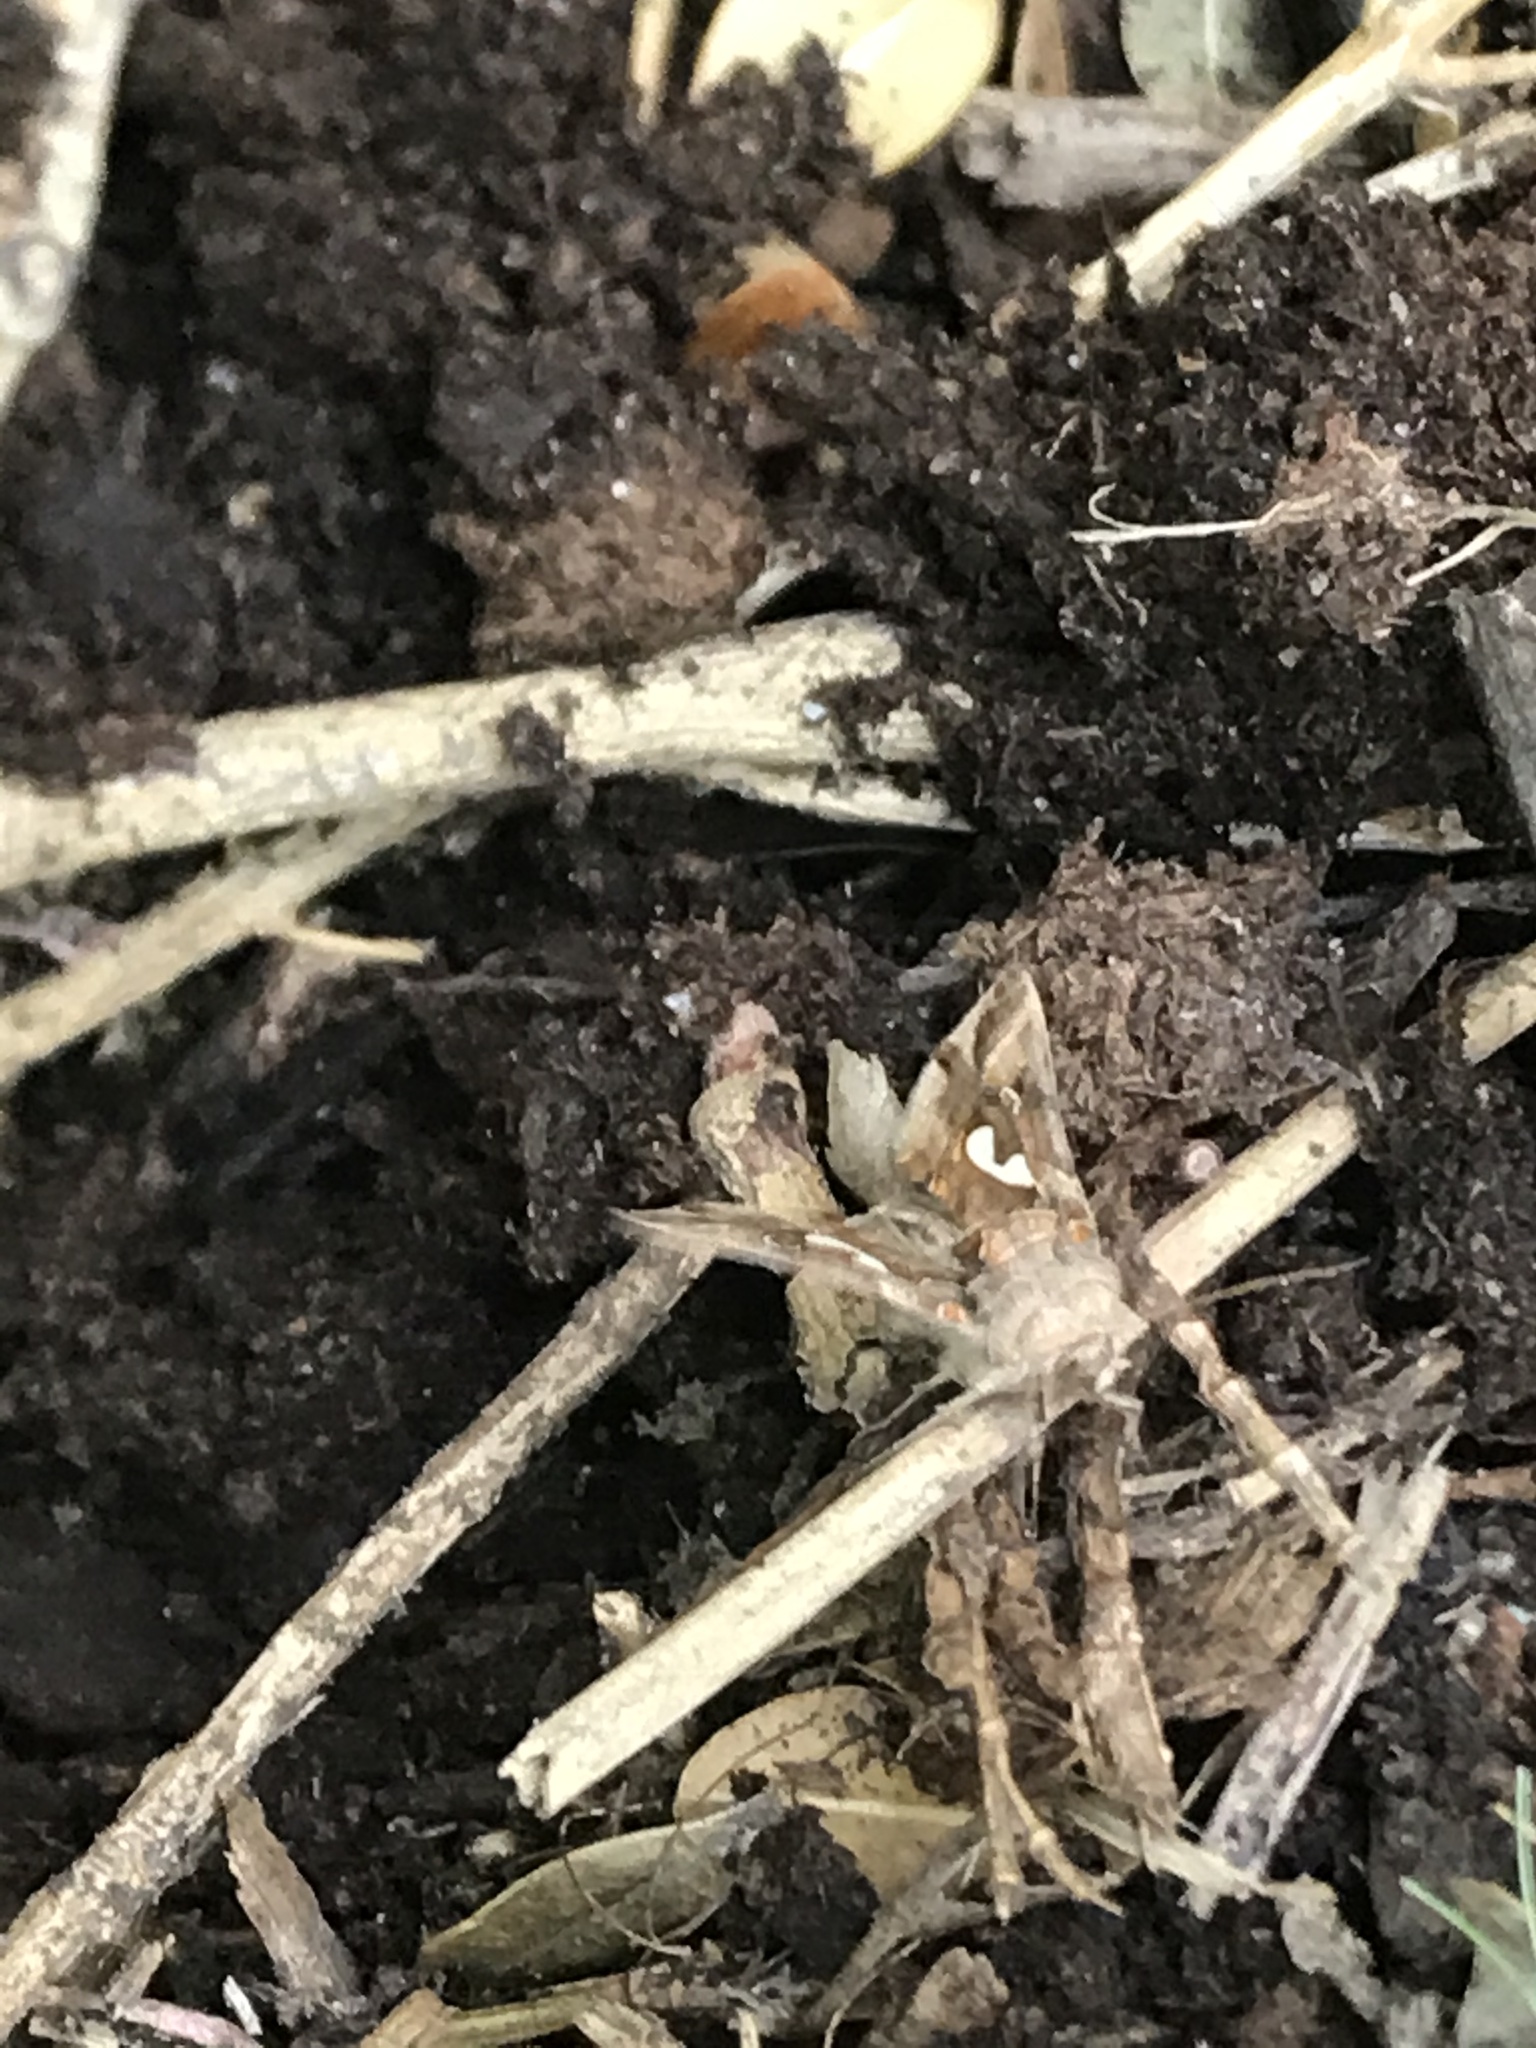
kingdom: Animalia
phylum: Arthropoda
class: Insecta
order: Lepidoptera
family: Noctuidae
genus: Megalographa
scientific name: Megalographa biloba
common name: Cutworm
